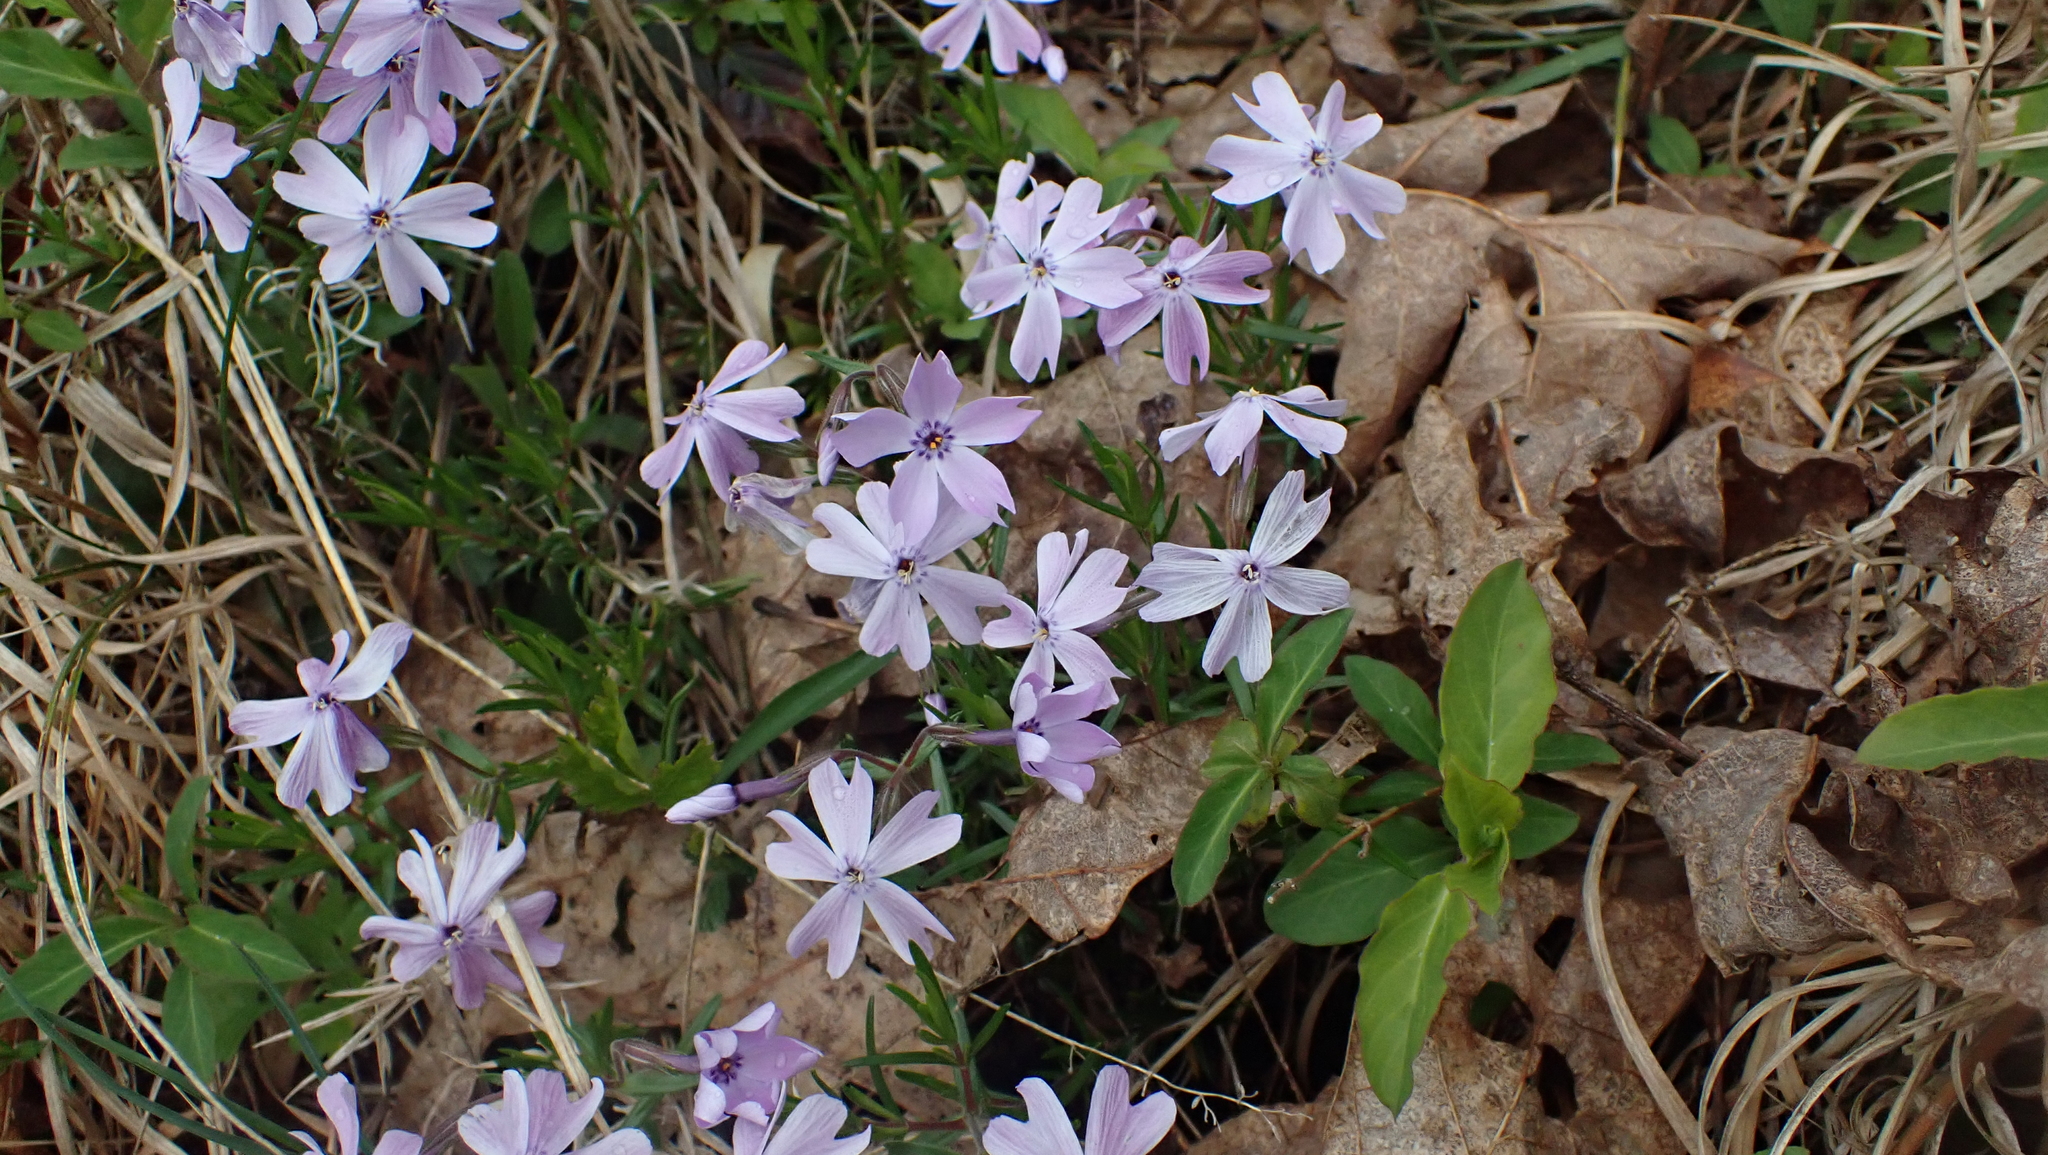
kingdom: Plantae
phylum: Tracheophyta
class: Magnoliopsida
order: Ericales
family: Polemoniaceae
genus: Phlox
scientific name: Phlox subulata
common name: Moss phlox
